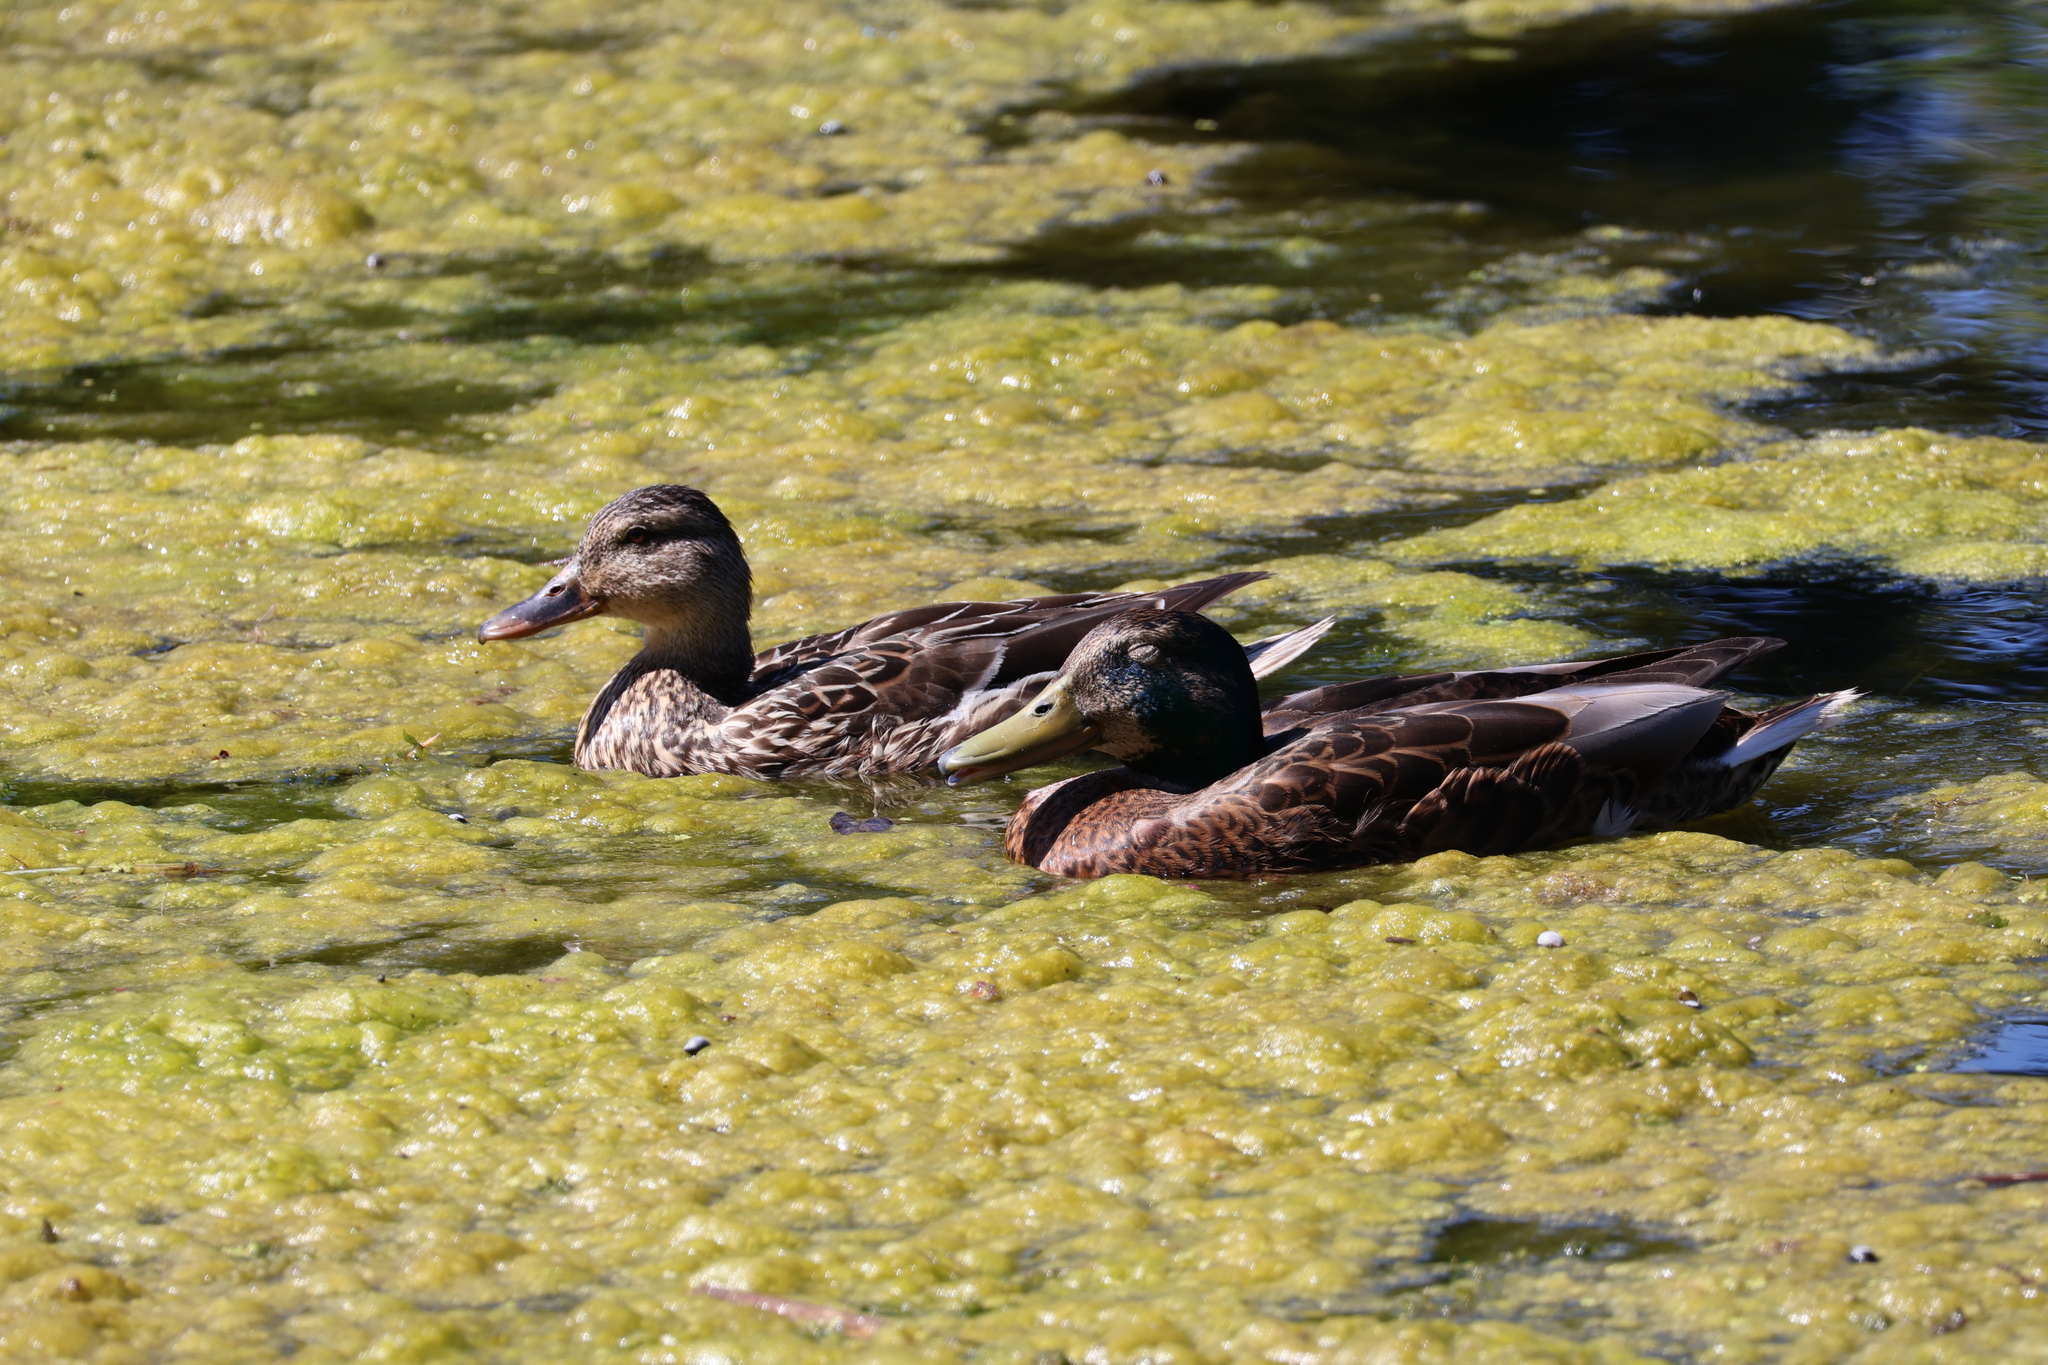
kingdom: Animalia
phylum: Chordata
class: Aves
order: Anseriformes
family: Anatidae
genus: Anas
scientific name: Anas platyrhynchos
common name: Mallard
